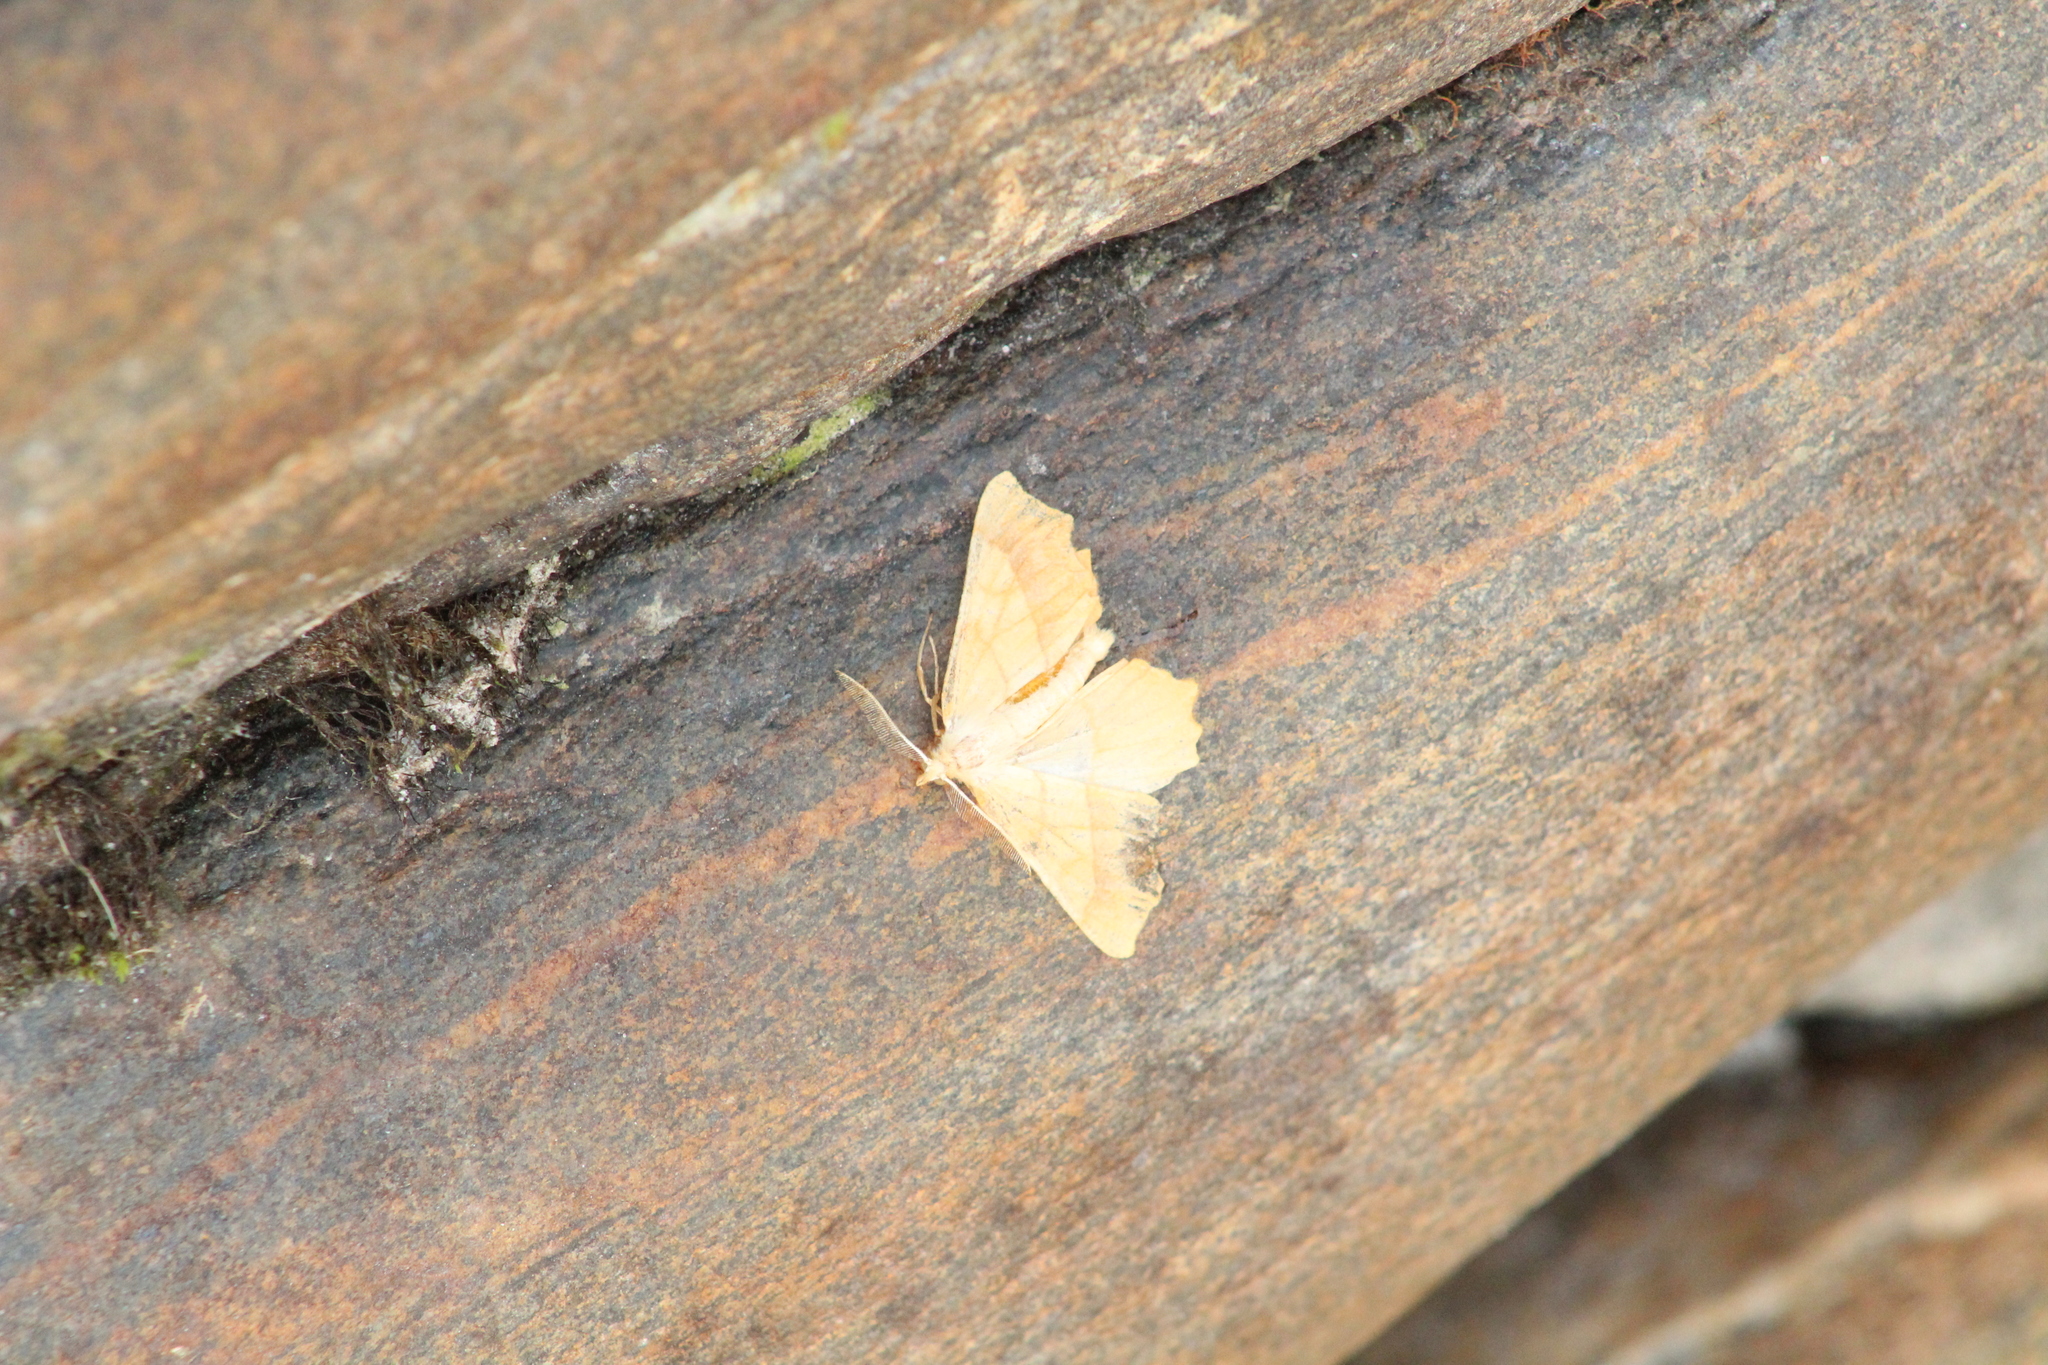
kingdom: Animalia
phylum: Arthropoda
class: Insecta
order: Lepidoptera
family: Geometridae
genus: Ennomos
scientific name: Ennomos quercinaria
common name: August thorn
